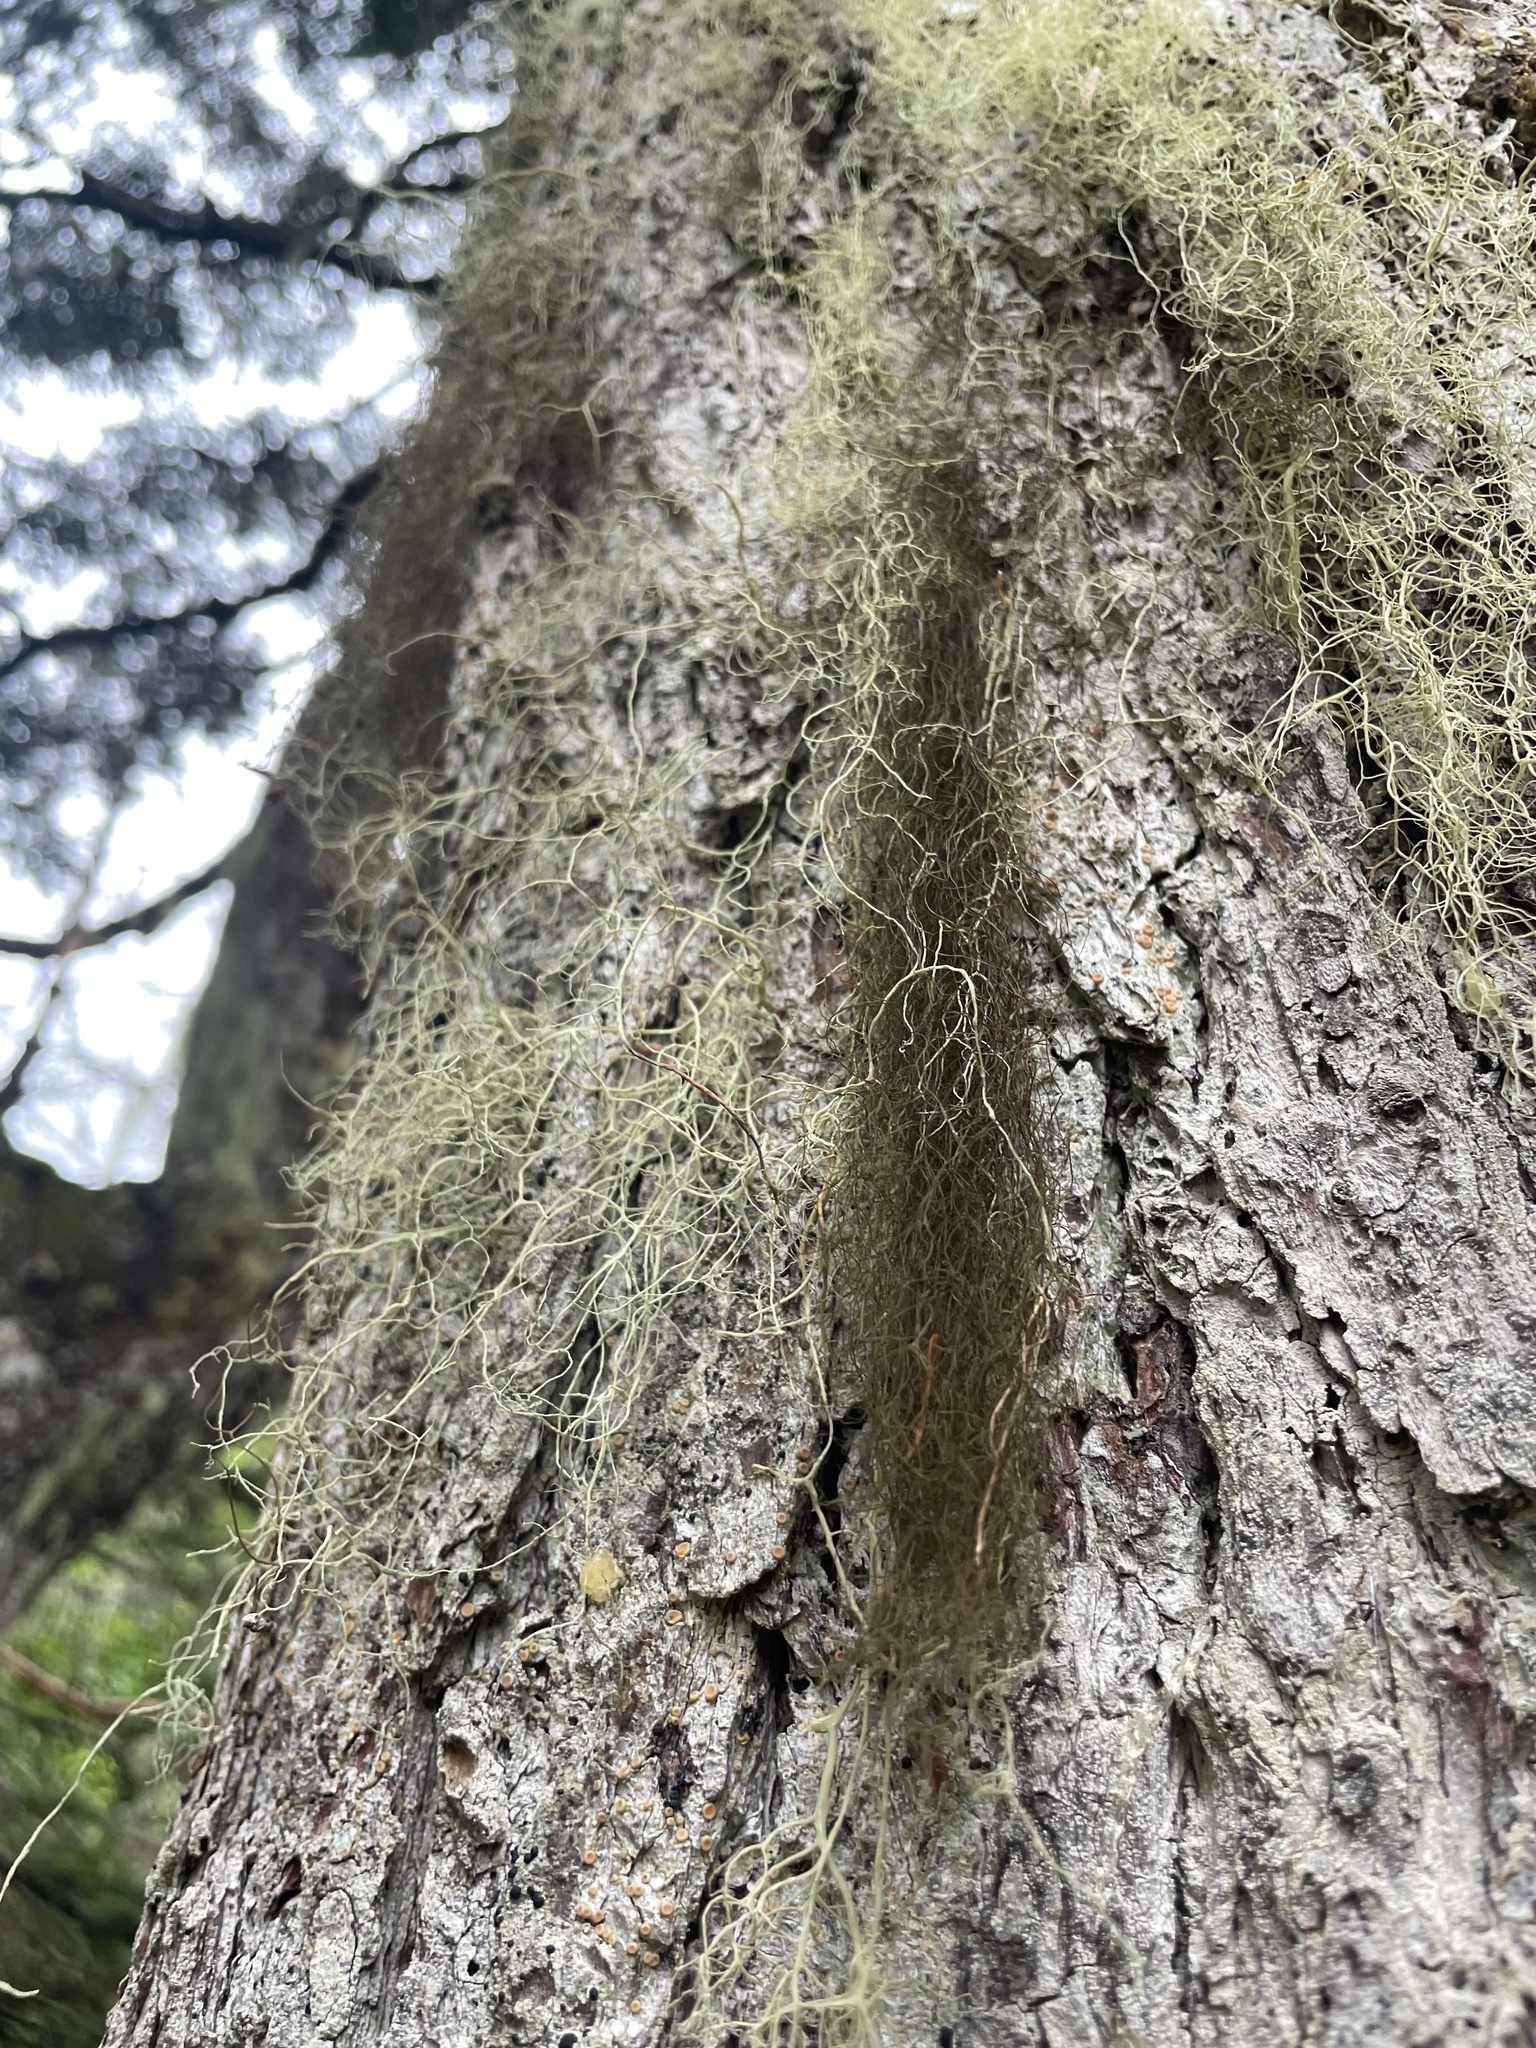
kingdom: Fungi
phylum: Ascomycota
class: Lecanoromycetes
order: Lecanorales
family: Parmeliaceae
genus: Alectoria
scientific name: Alectoria sarmentosa
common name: Witch's hair
